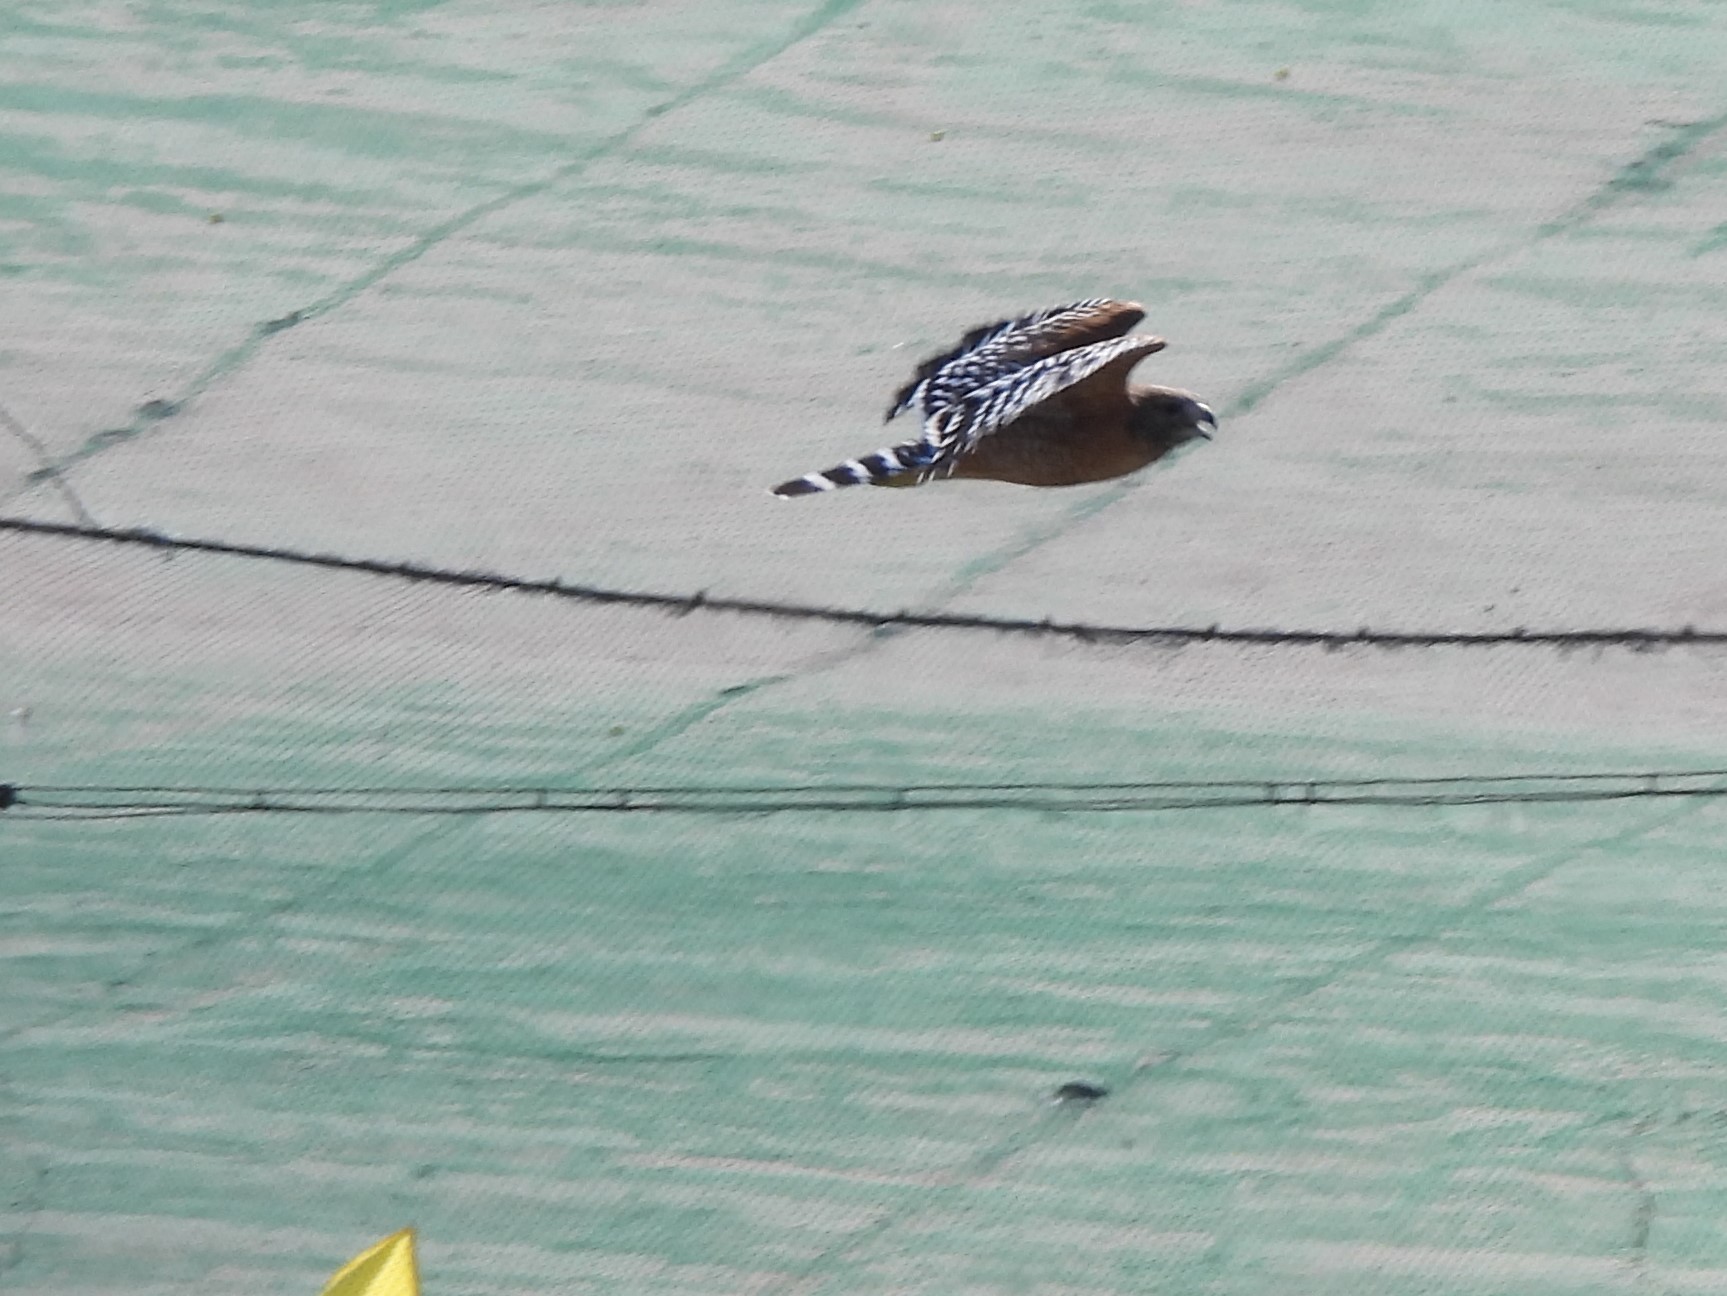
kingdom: Animalia
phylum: Chordata
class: Aves
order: Accipitriformes
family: Accipitridae
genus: Buteo
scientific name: Buteo lineatus
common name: Red-shouldered hawk
